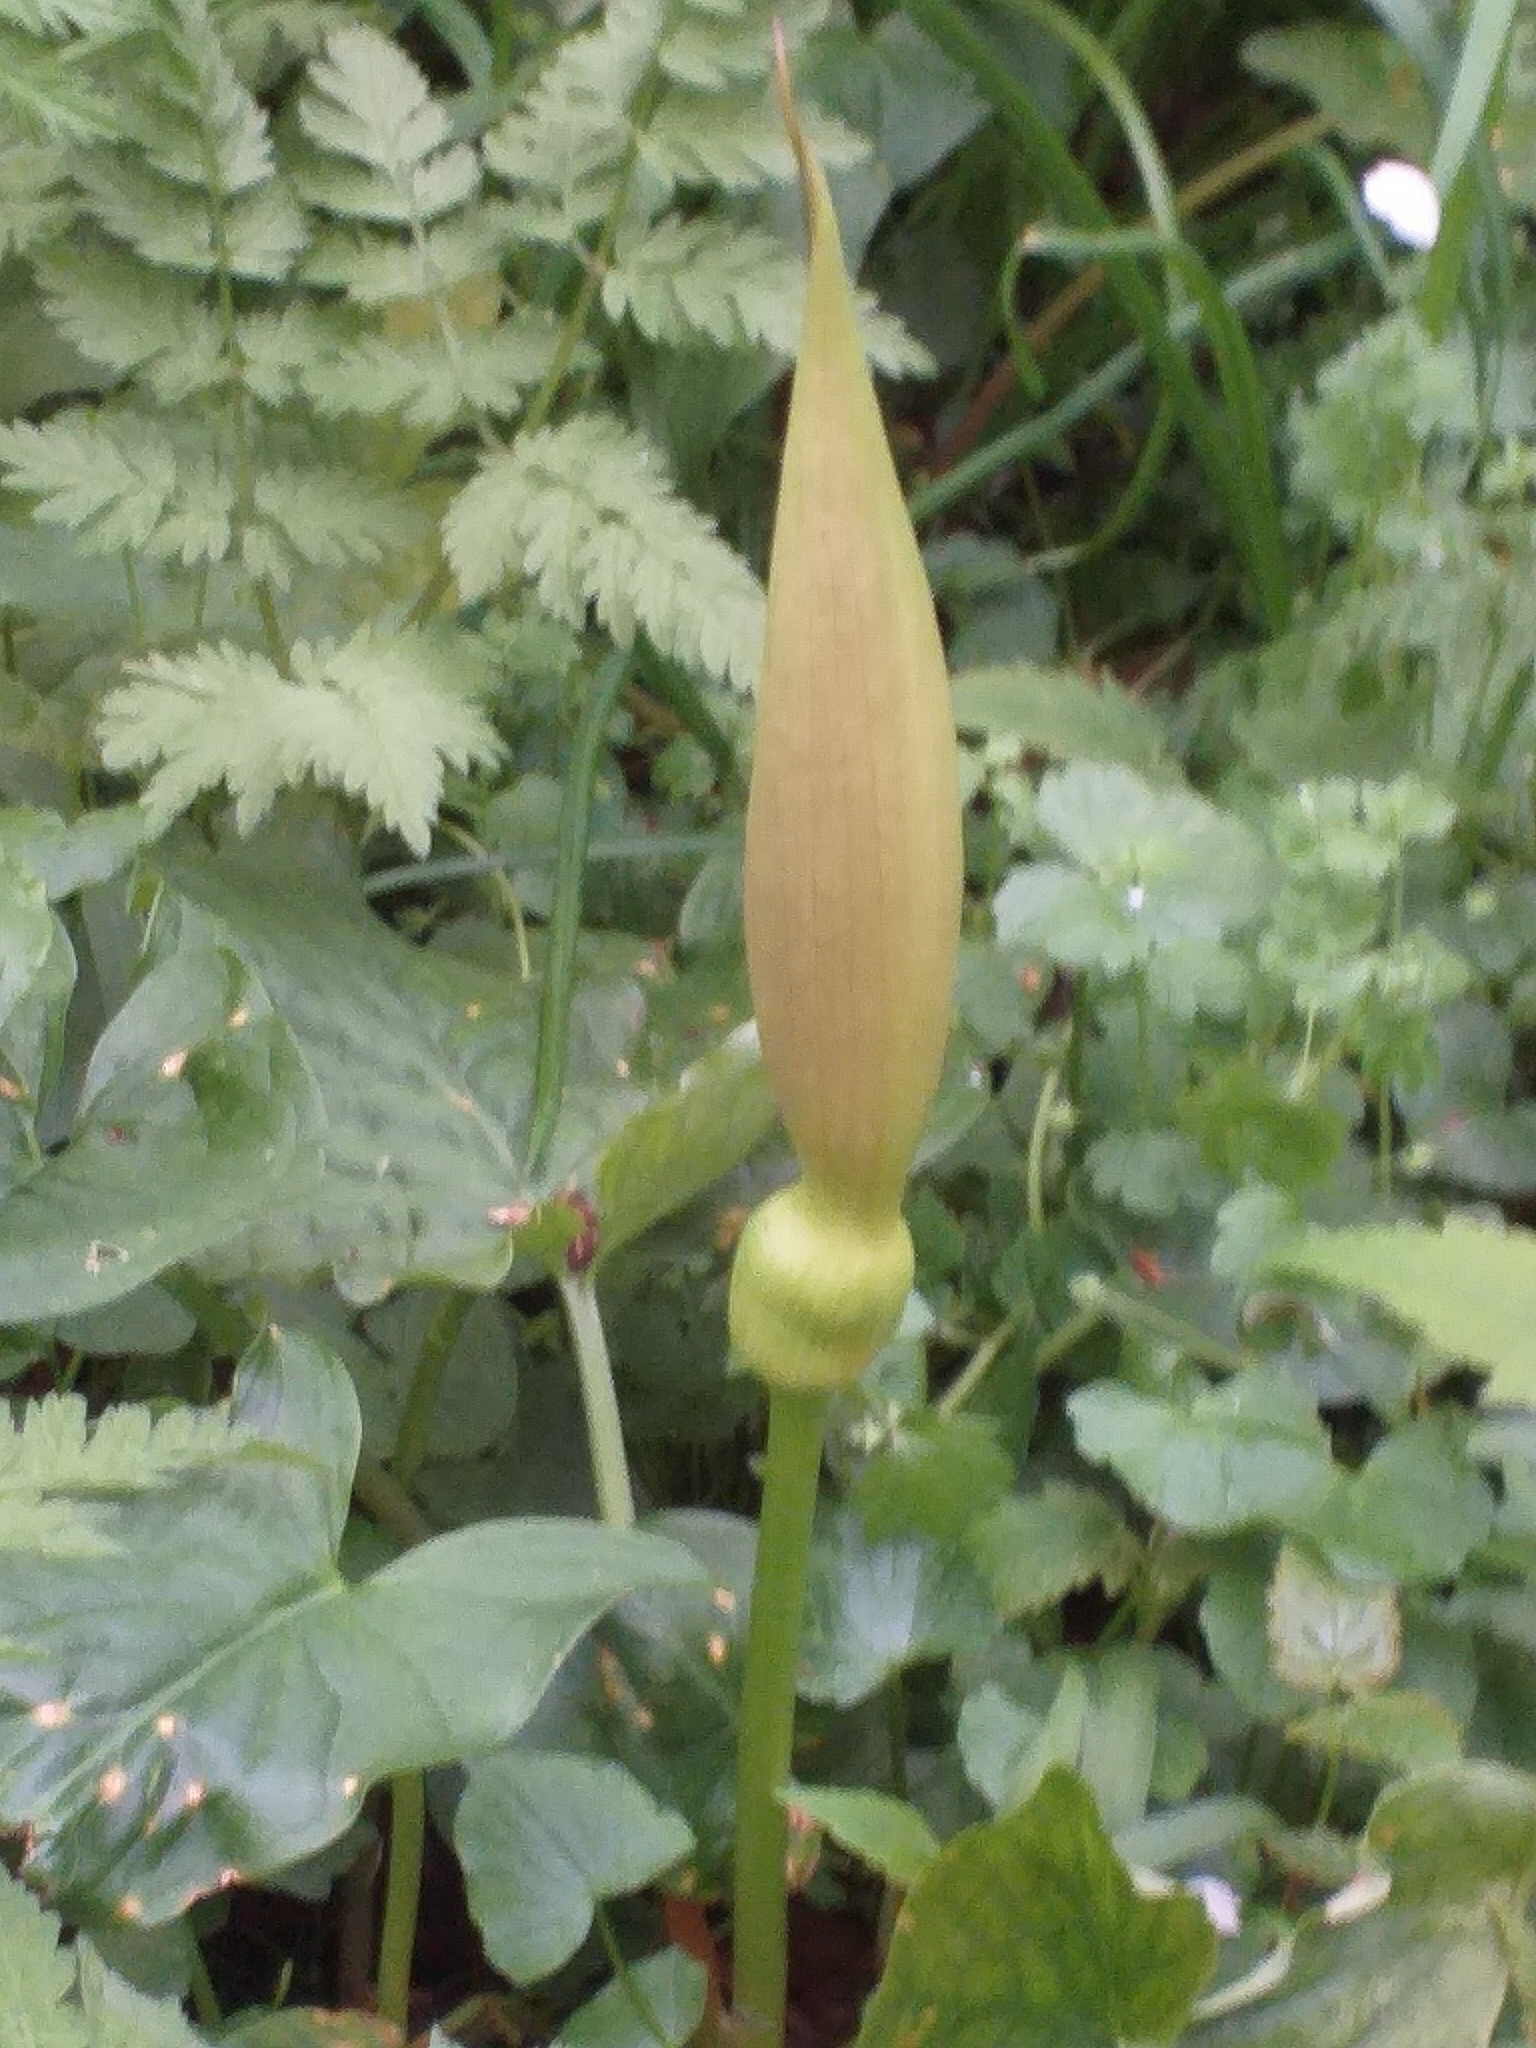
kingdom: Plantae
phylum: Tracheophyta
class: Liliopsida
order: Alismatales
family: Araceae
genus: Arum
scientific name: Arum maculatum
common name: Lords-and-ladies
